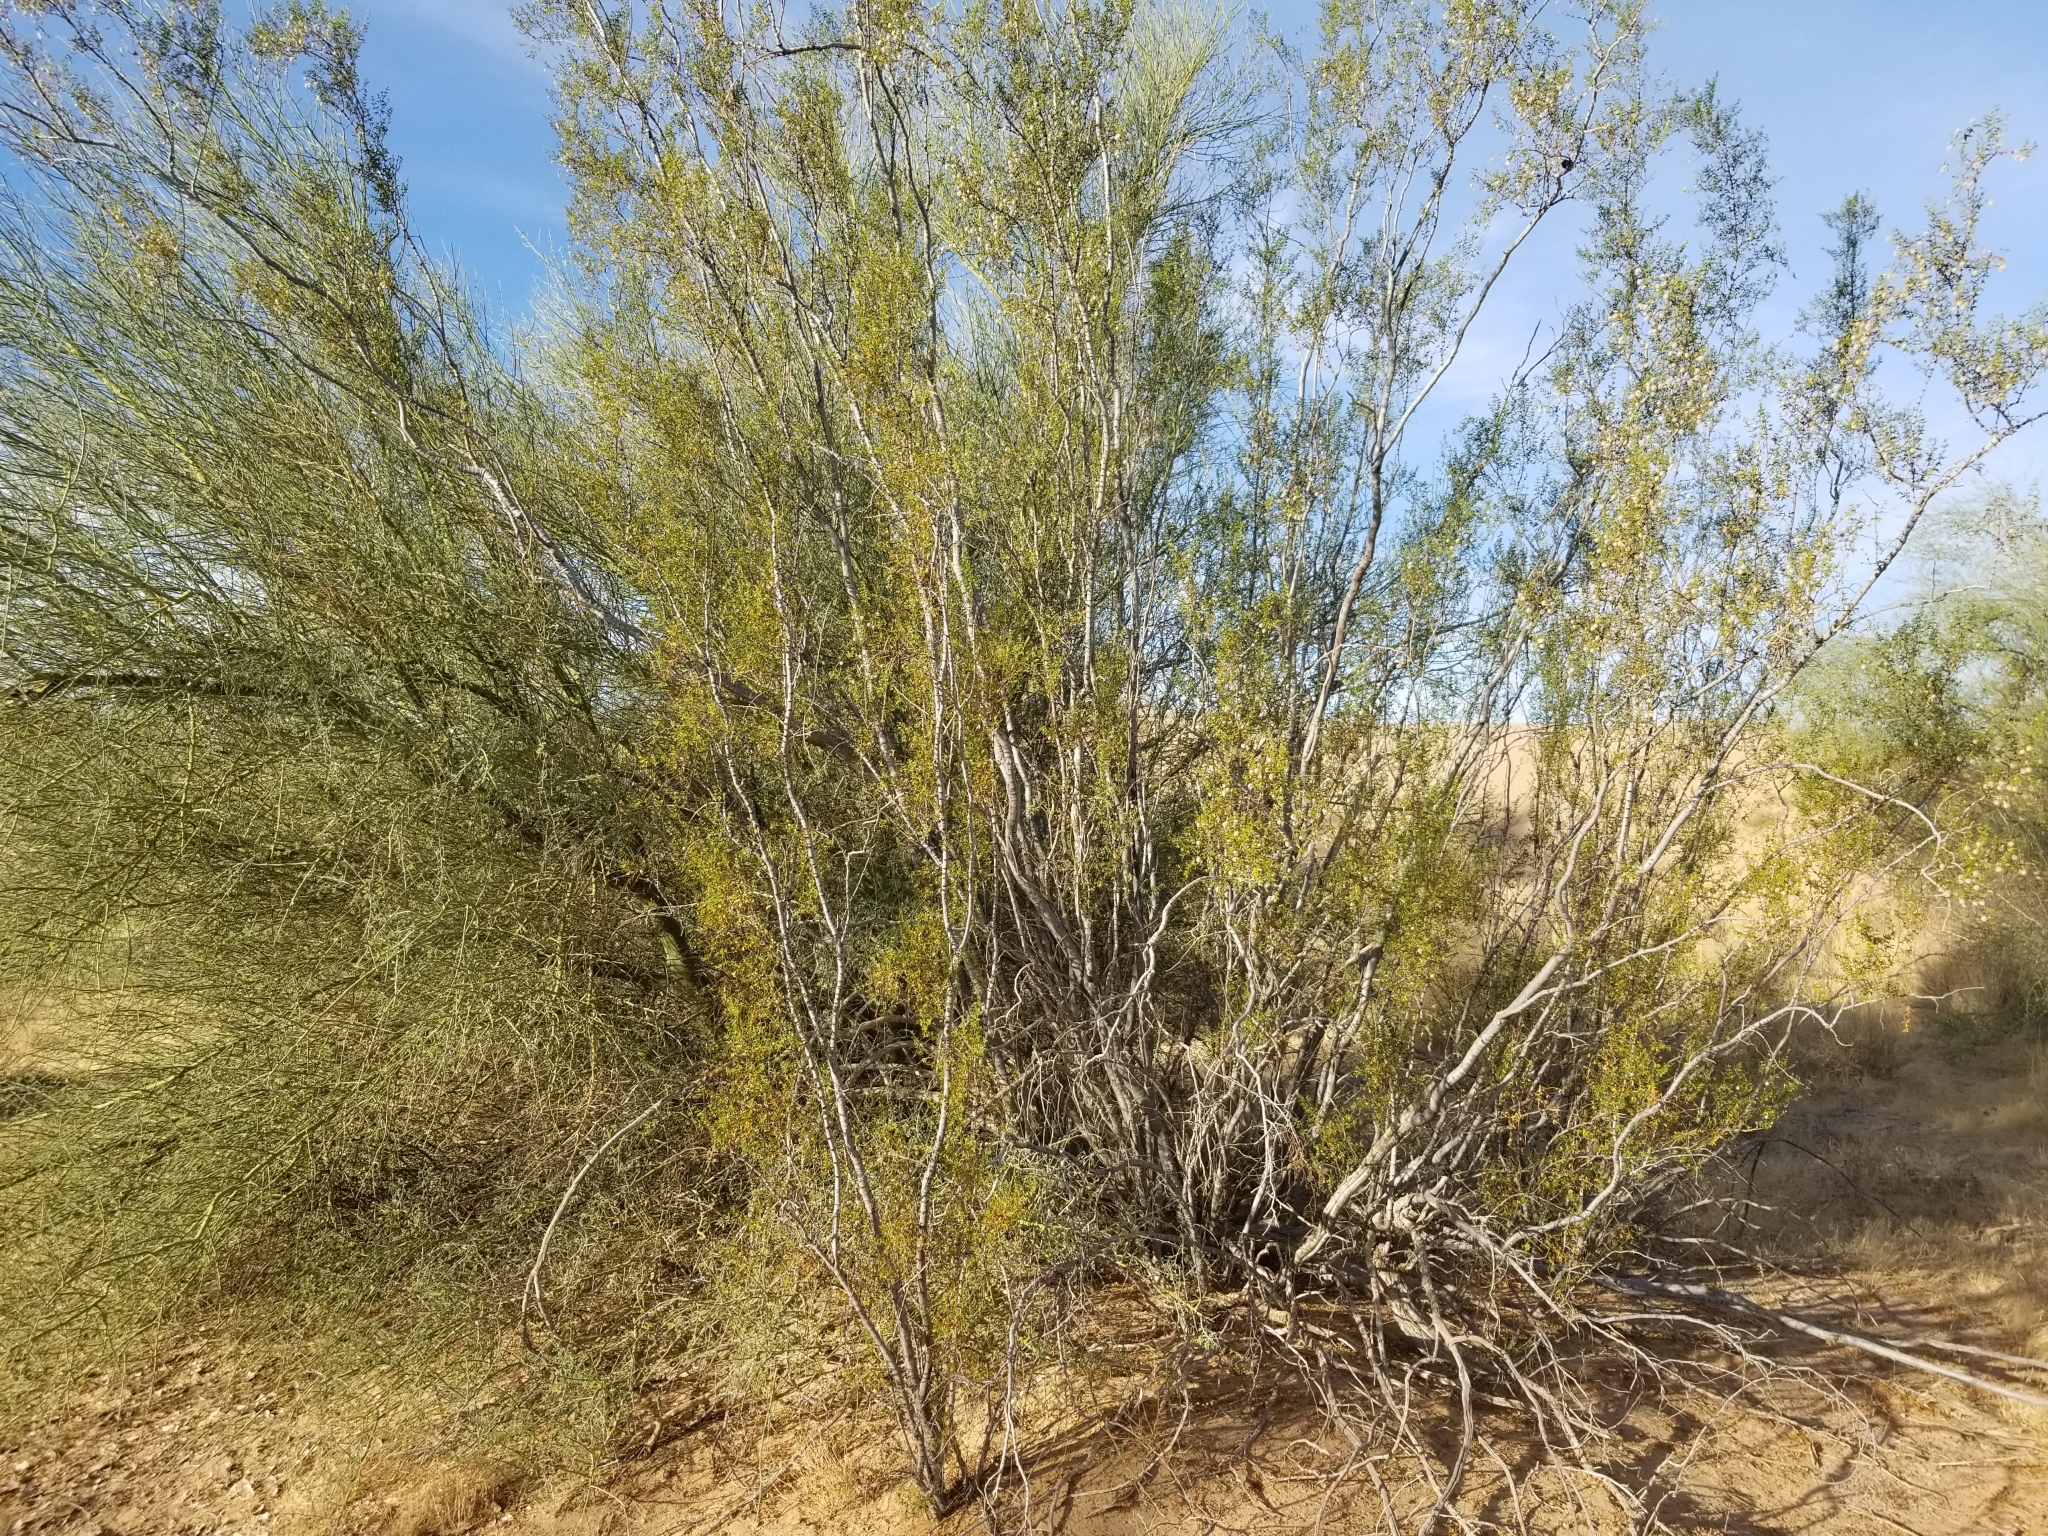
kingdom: Plantae
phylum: Tracheophyta
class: Magnoliopsida
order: Zygophyllales
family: Zygophyllaceae
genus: Larrea
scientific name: Larrea tridentata
